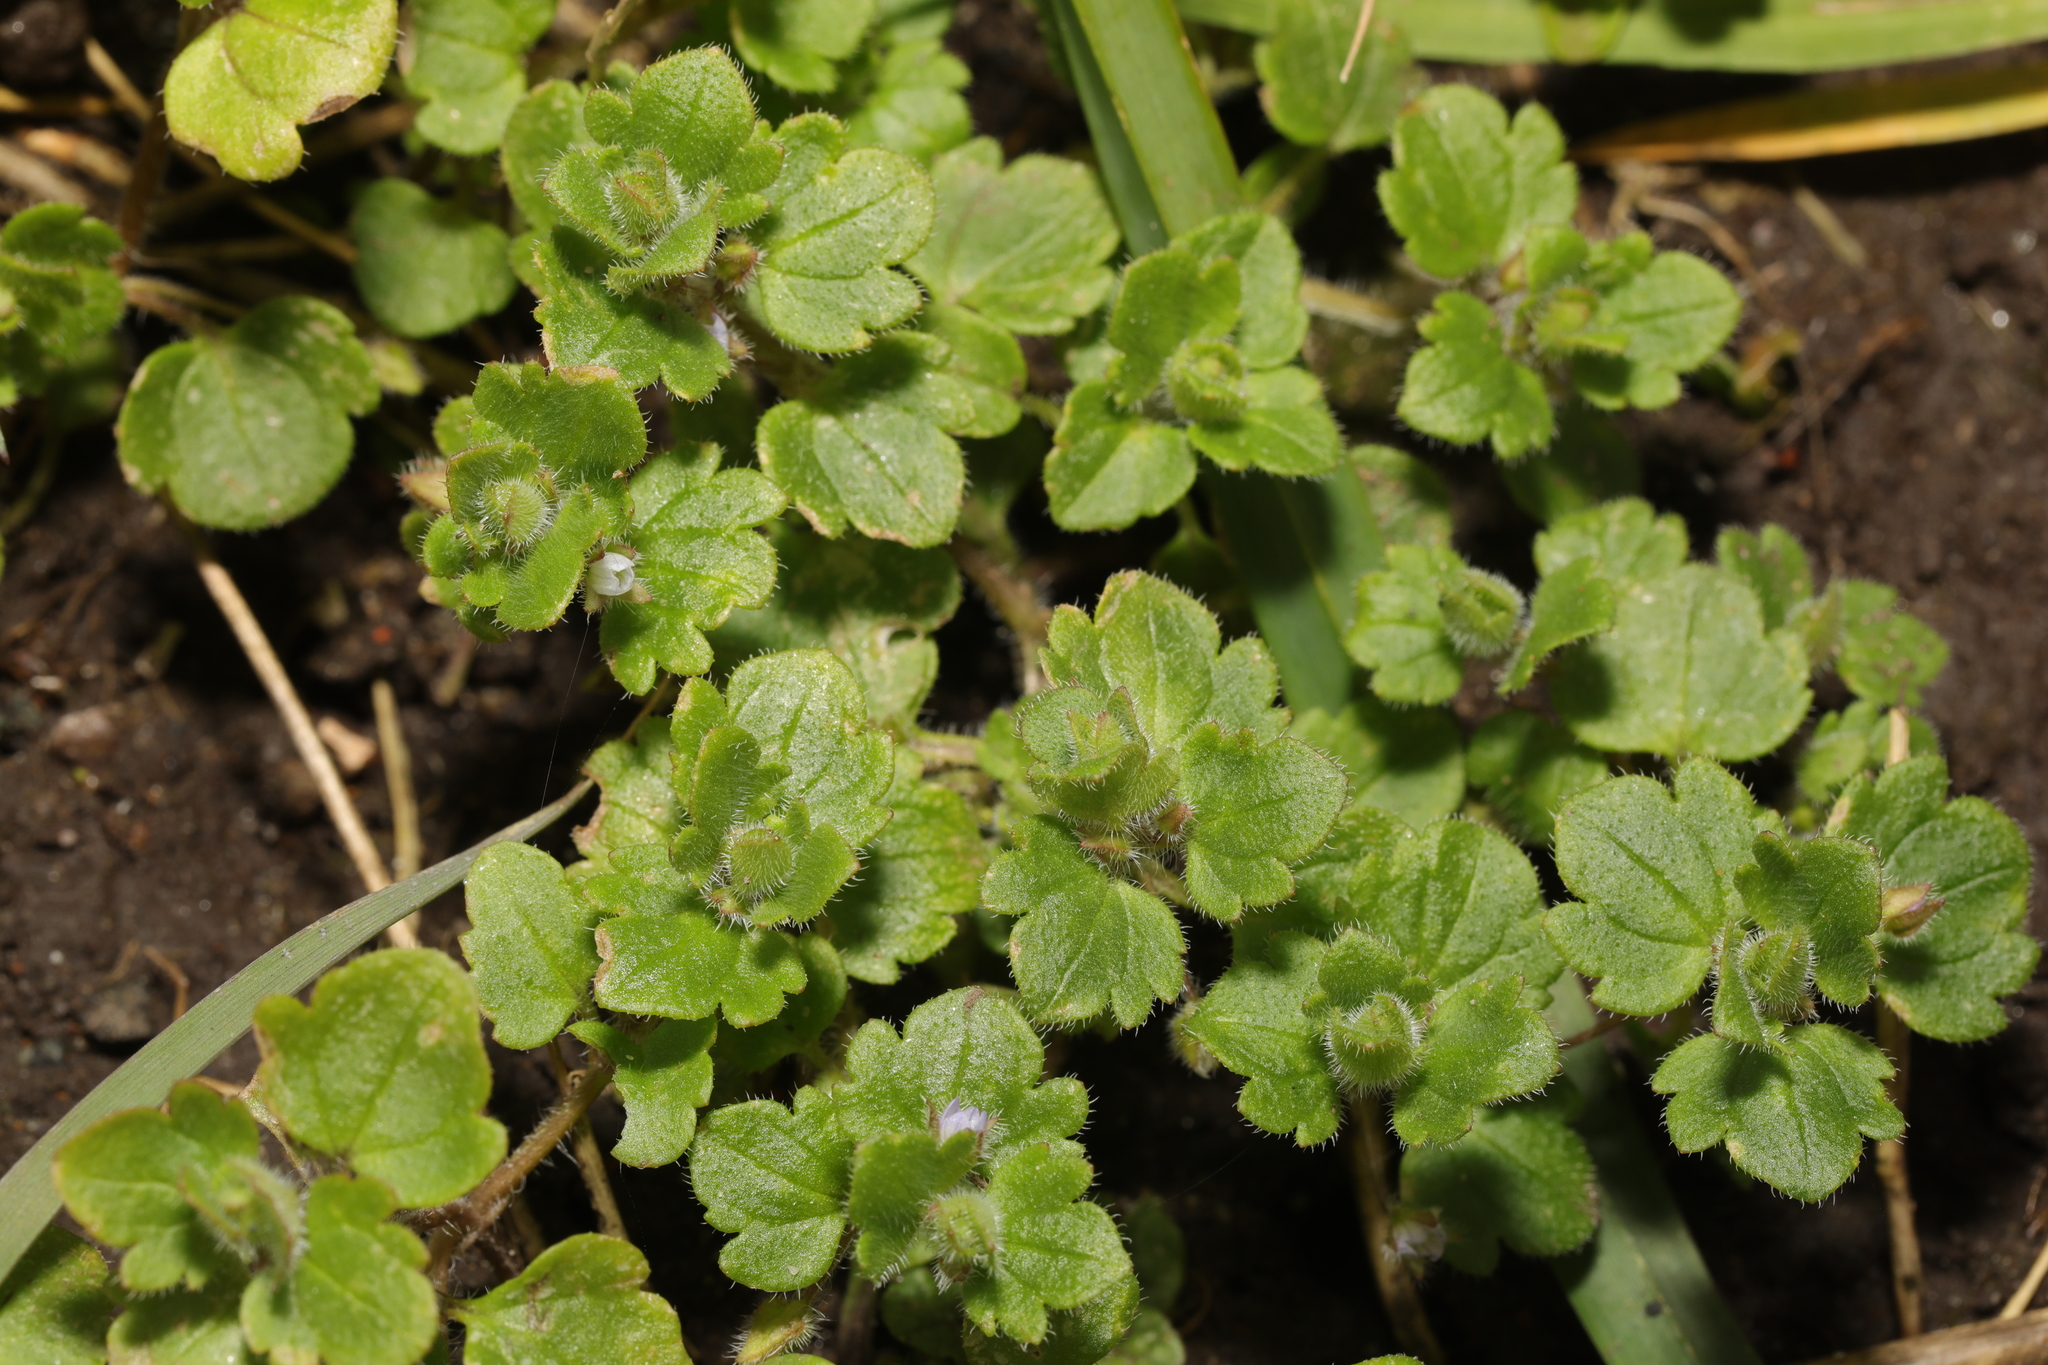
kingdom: Plantae
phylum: Tracheophyta
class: Magnoliopsida
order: Lamiales
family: Plantaginaceae
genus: Veronica
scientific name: Veronica hederifolia
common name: Ivy-leaved speedwell
